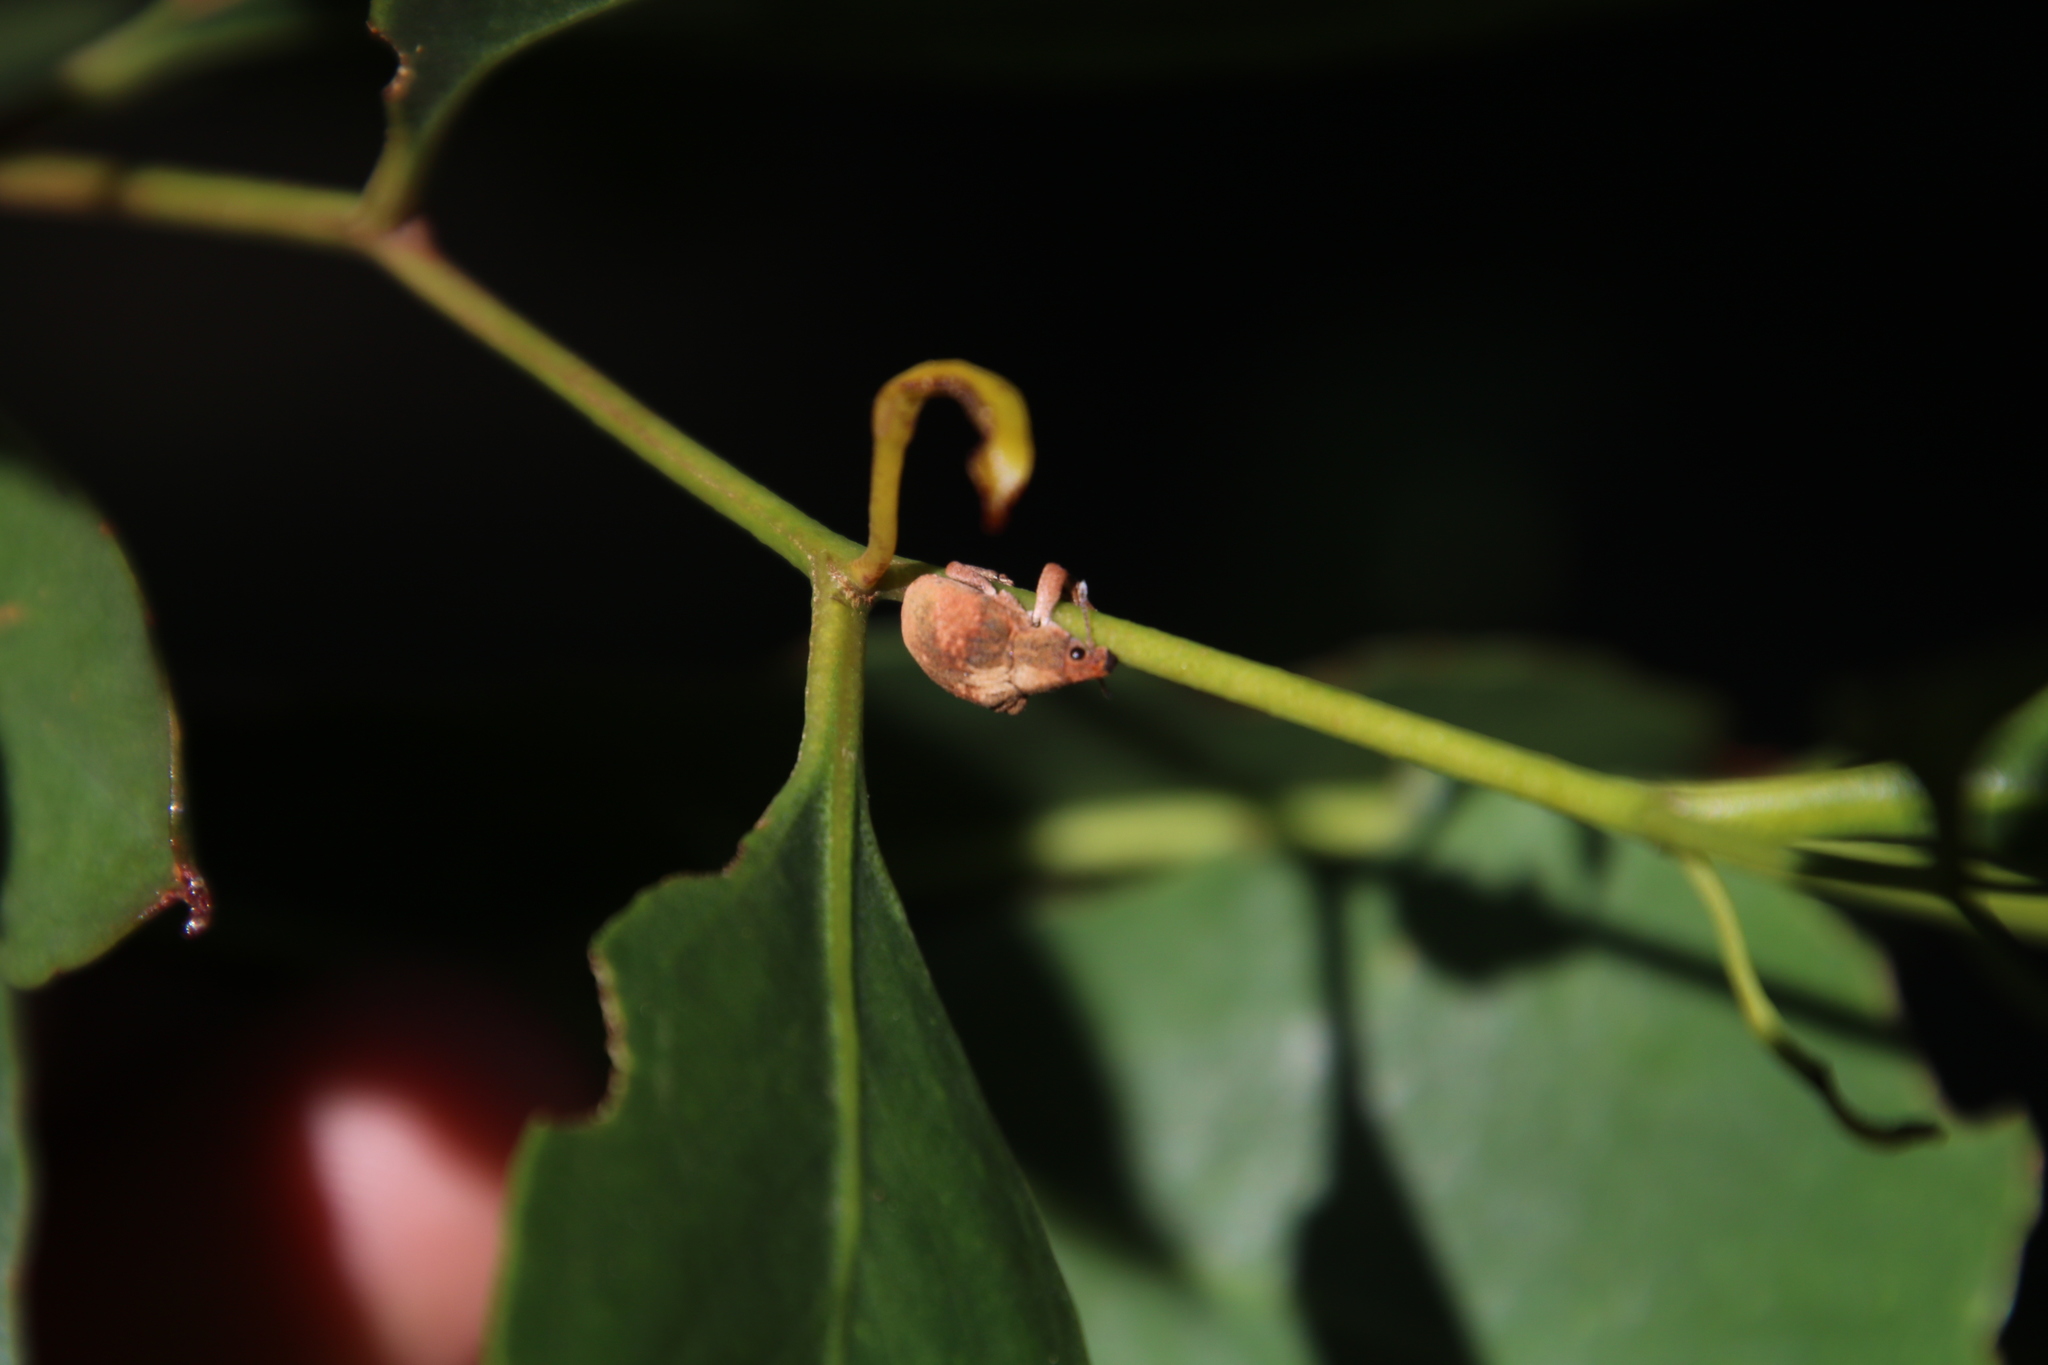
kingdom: Animalia
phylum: Arthropoda
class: Insecta
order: Coleoptera
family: Curculionidae
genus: Gonipterus
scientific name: Gonipterus
